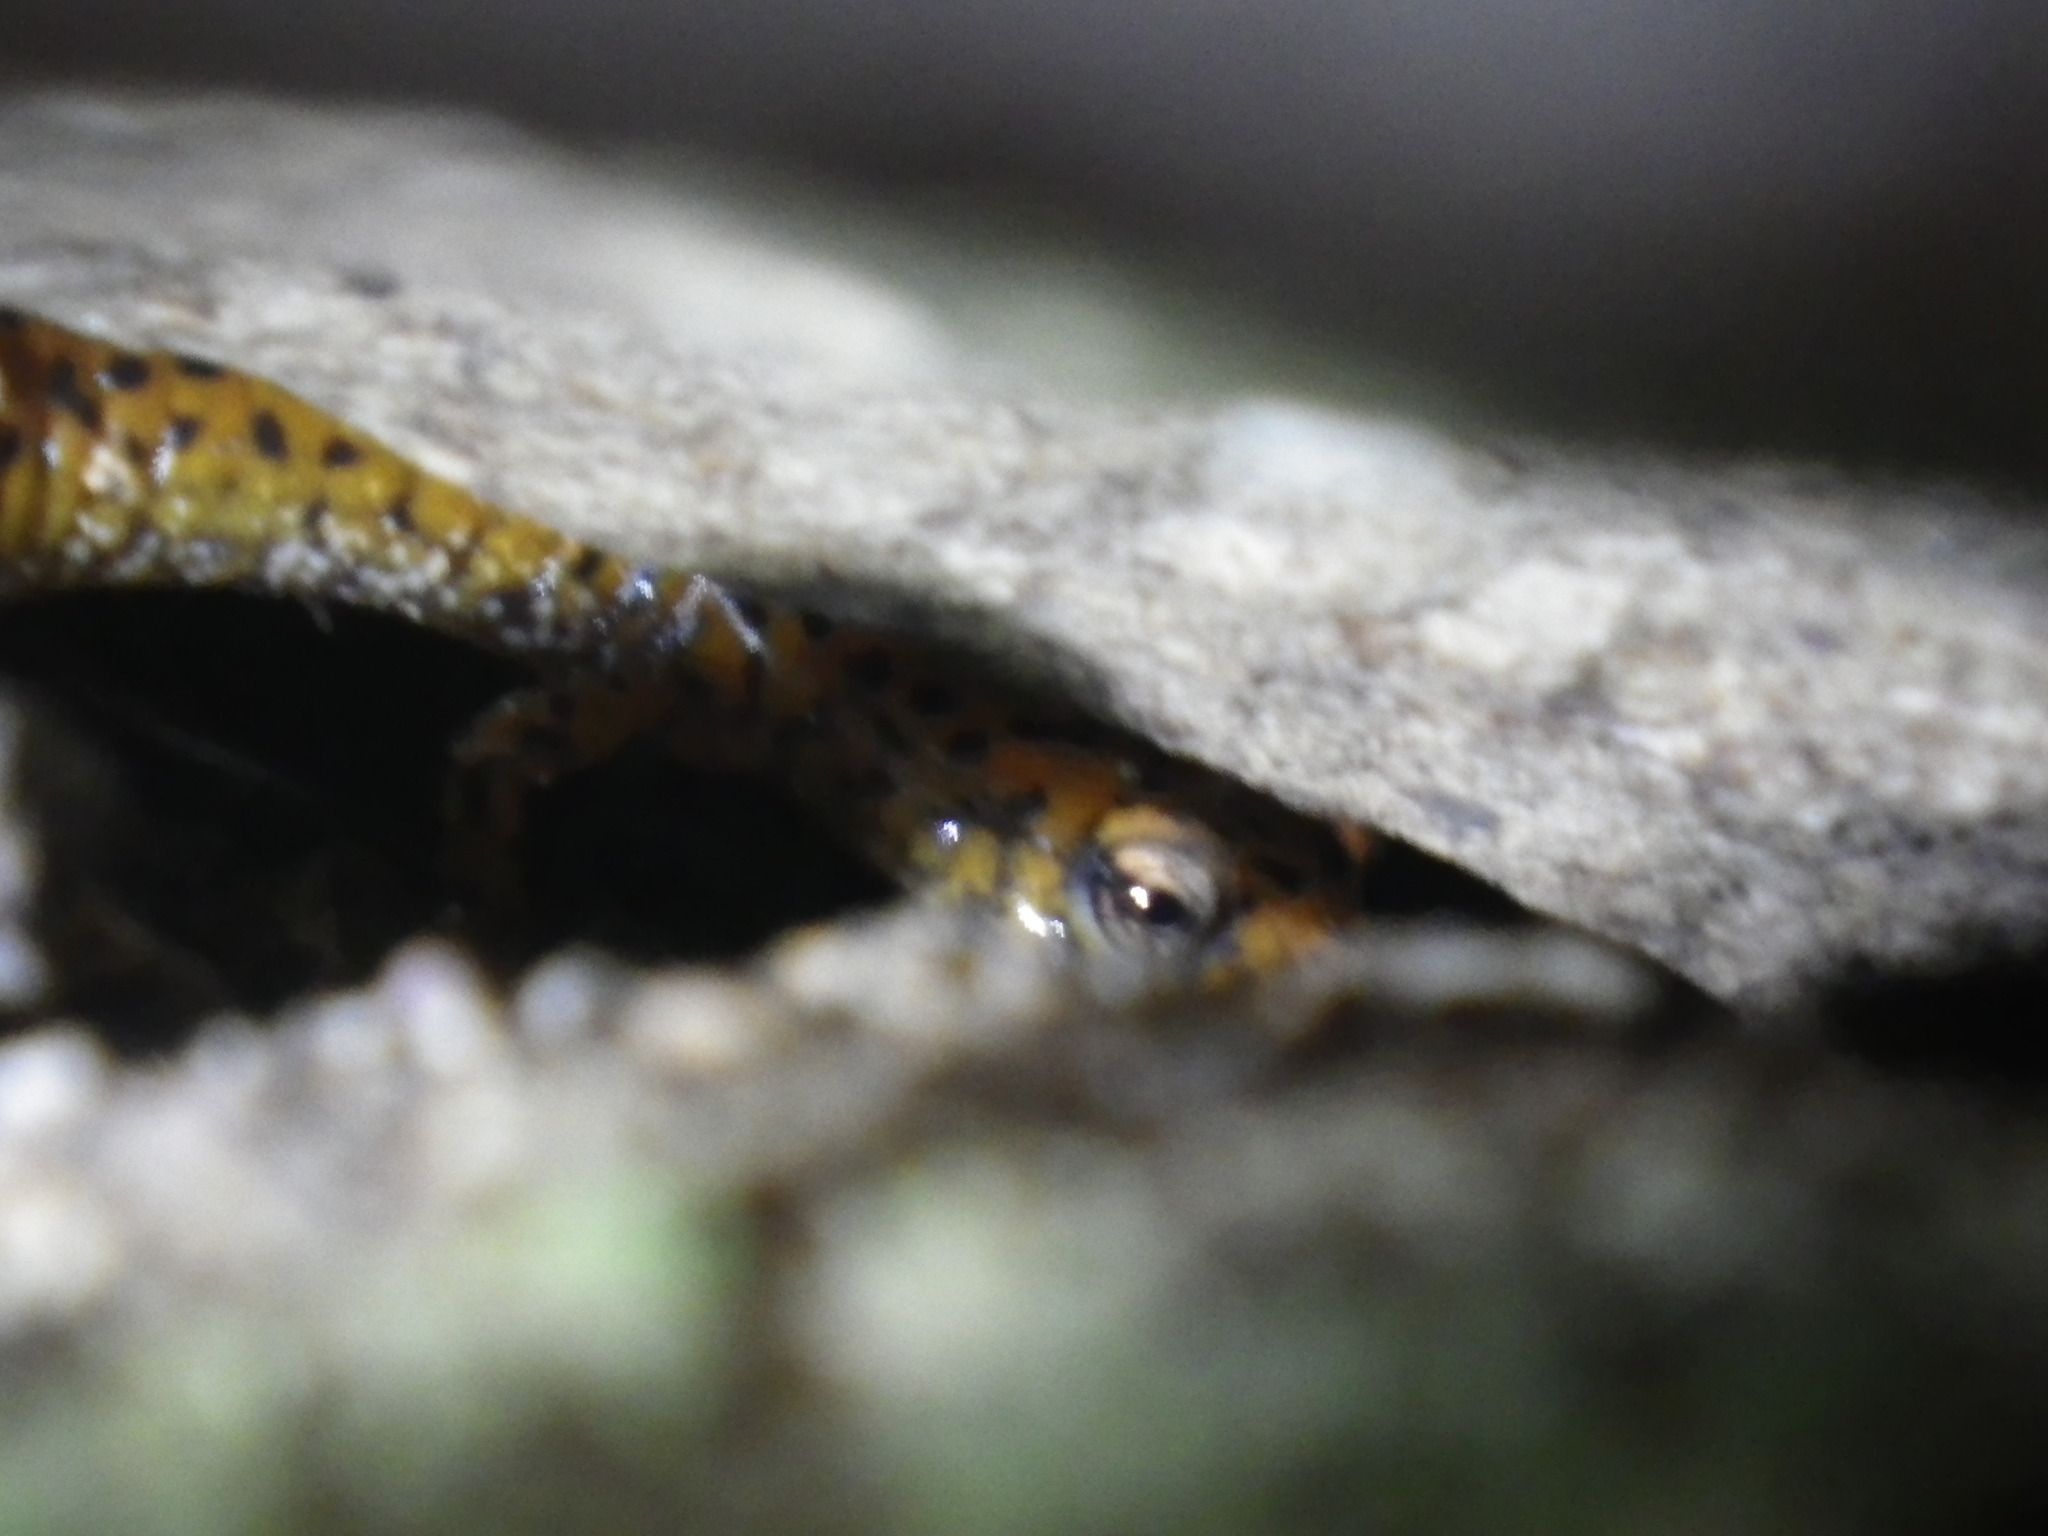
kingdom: Animalia
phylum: Chordata
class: Amphibia
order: Caudata
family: Plethodontidae
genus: Eurycea
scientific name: Eurycea lucifuga
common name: Cave salamander
